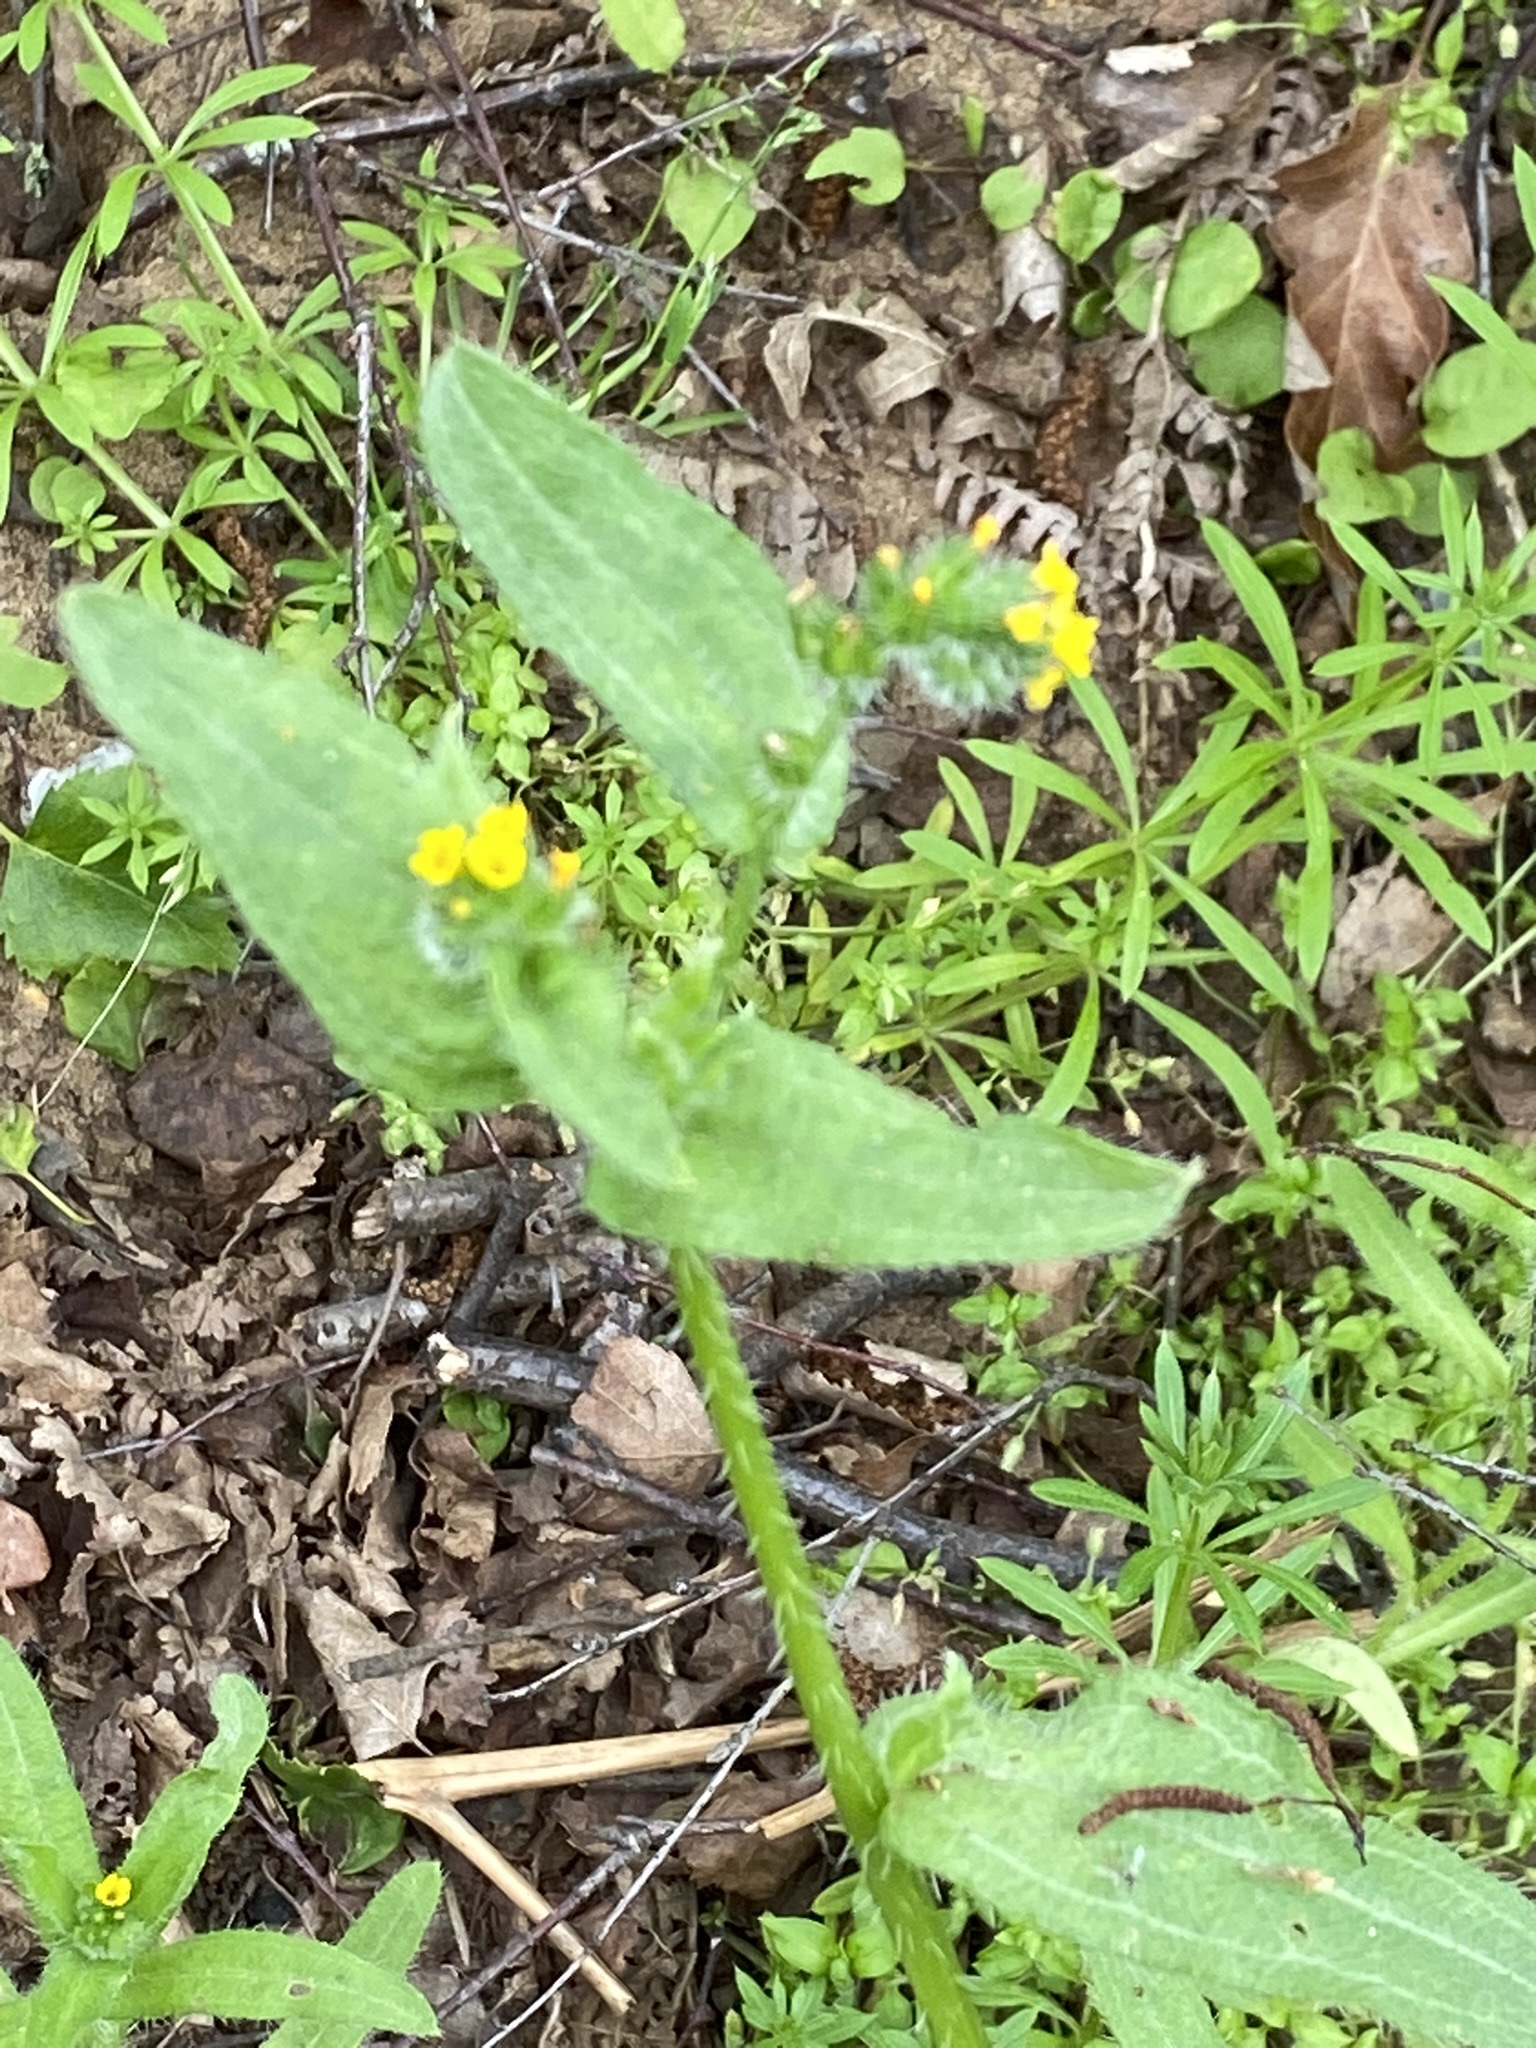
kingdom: Plantae
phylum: Tracheophyta
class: Magnoliopsida
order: Boraginales
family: Boraginaceae
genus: Amsinckia
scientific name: Amsinckia menziesii
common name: Menzies' fiddleneck
